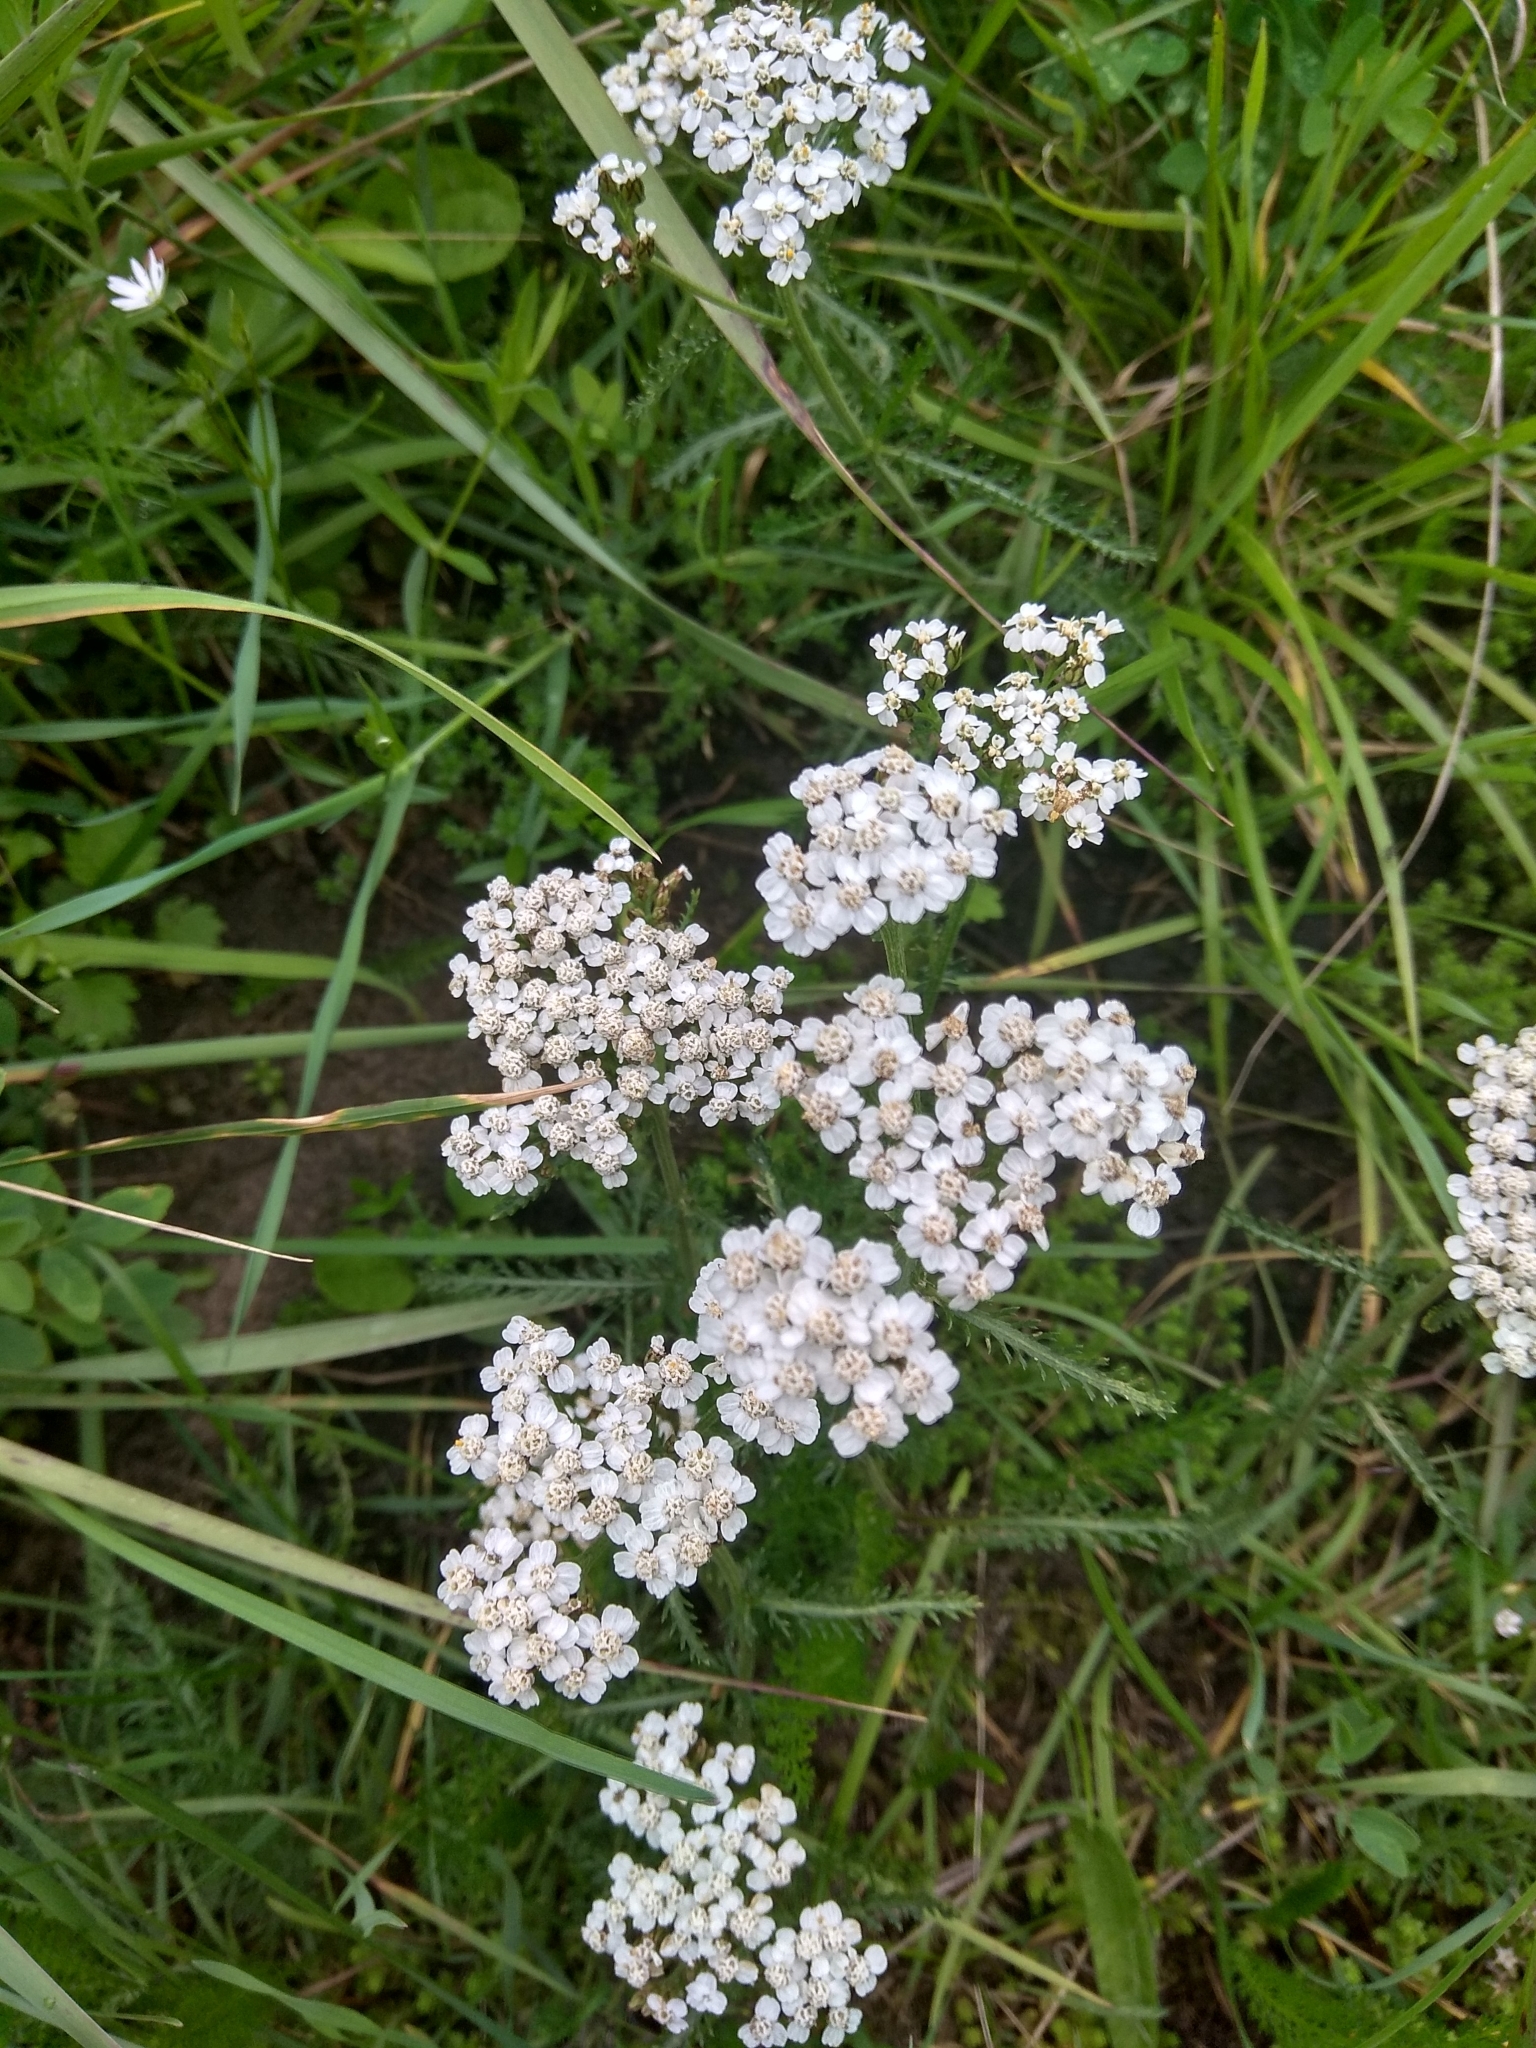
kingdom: Plantae
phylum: Tracheophyta
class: Magnoliopsida
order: Asterales
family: Asteraceae
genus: Achillea
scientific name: Achillea millefolium
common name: Yarrow
